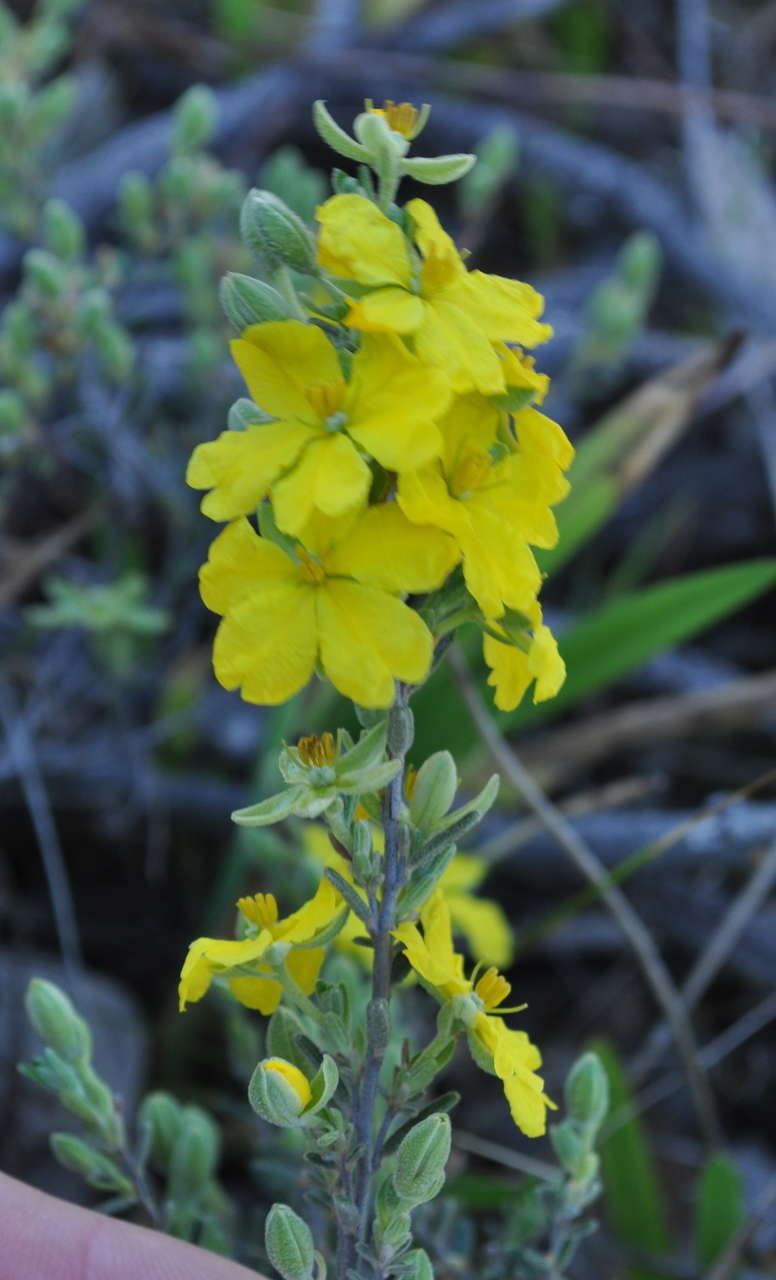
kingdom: Plantae
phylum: Tracheophyta
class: Magnoliopsida
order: Dilleniales
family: Dilleniaceae
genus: Hibbertia
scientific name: Hibbertia australis
